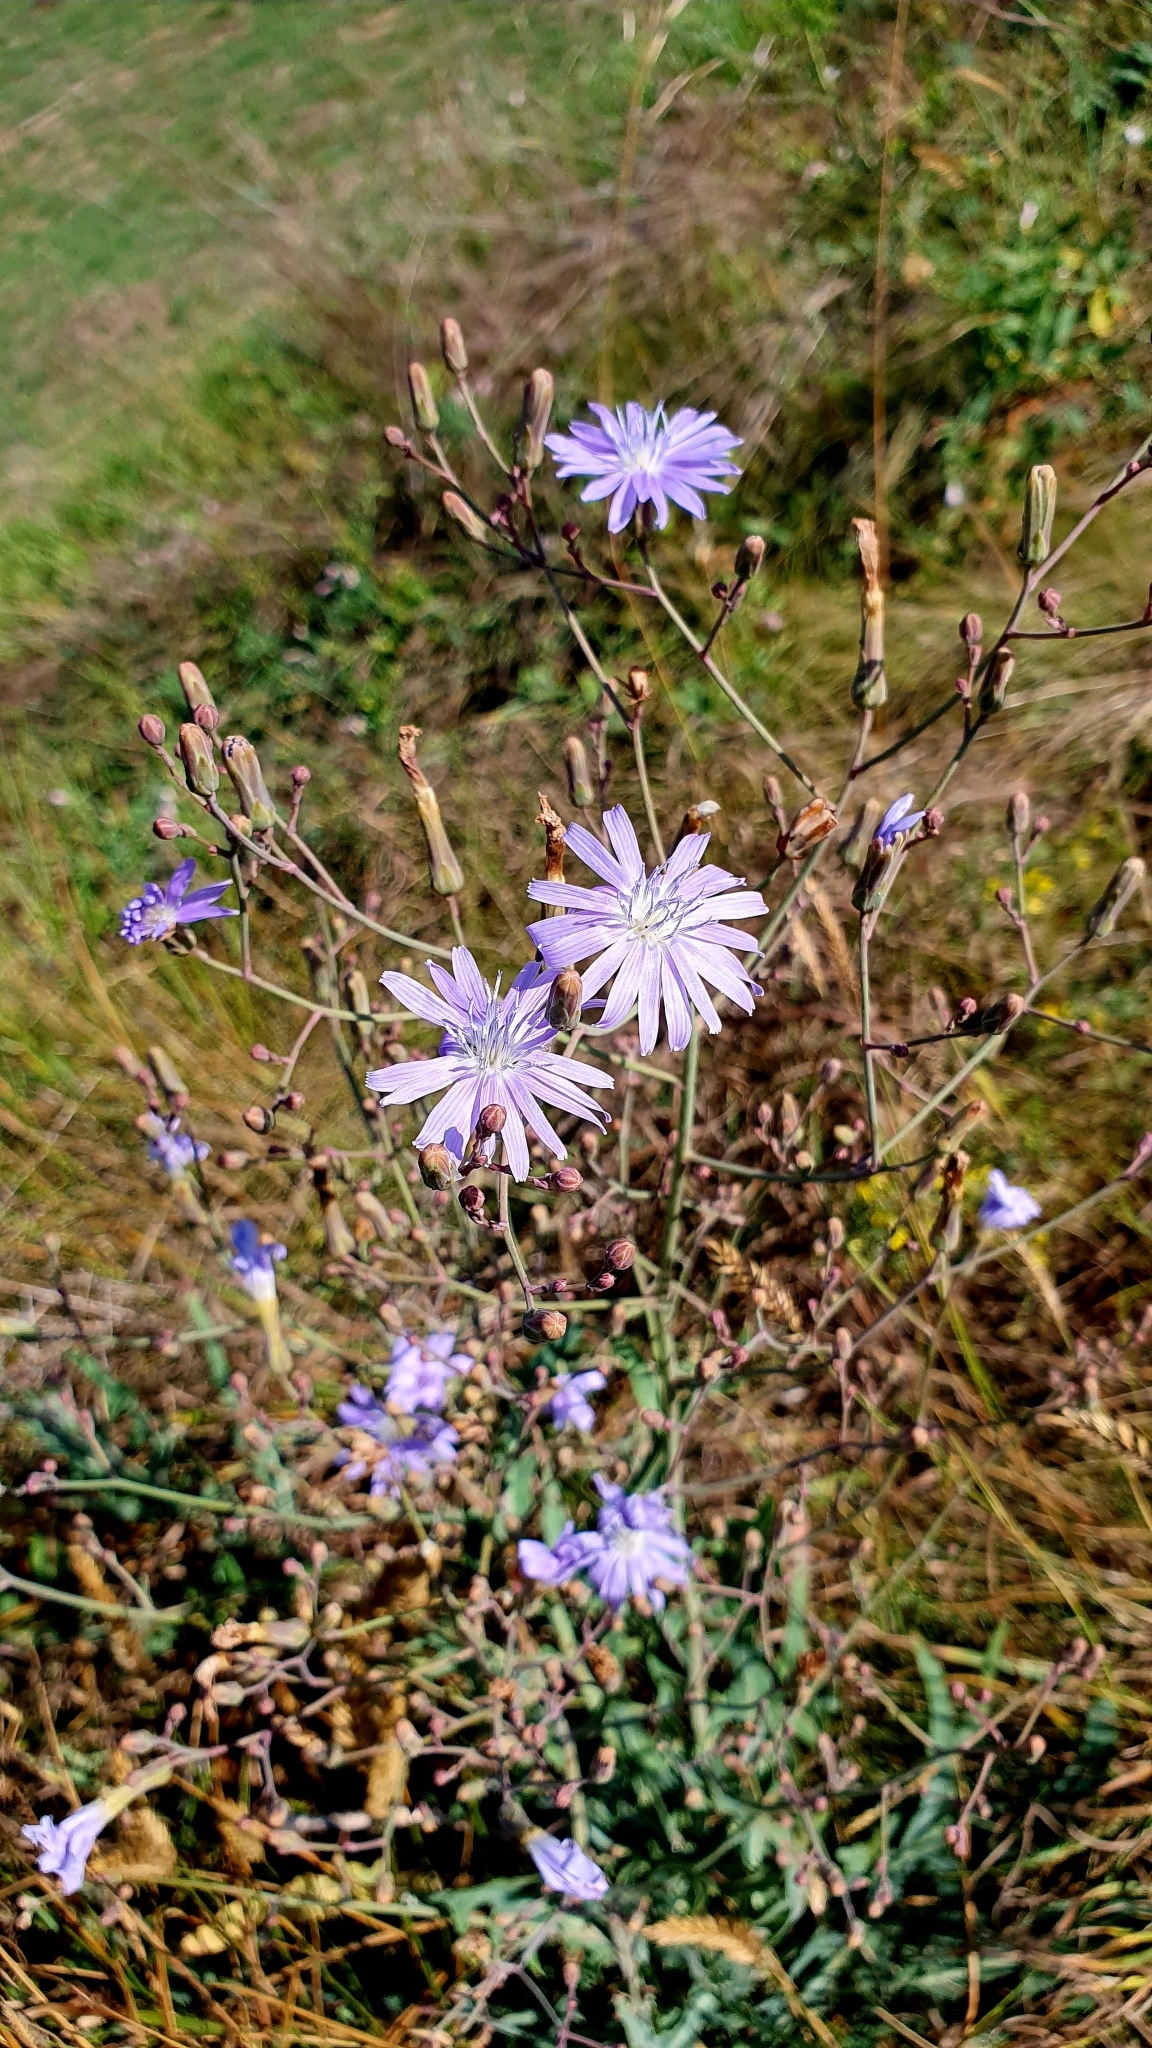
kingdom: Plantae
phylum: Tracheophyta
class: Magnoliopsida
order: Asterales
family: Asteraceae
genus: Lactuca
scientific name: Lactuca tatarica
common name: Blue lettuce
